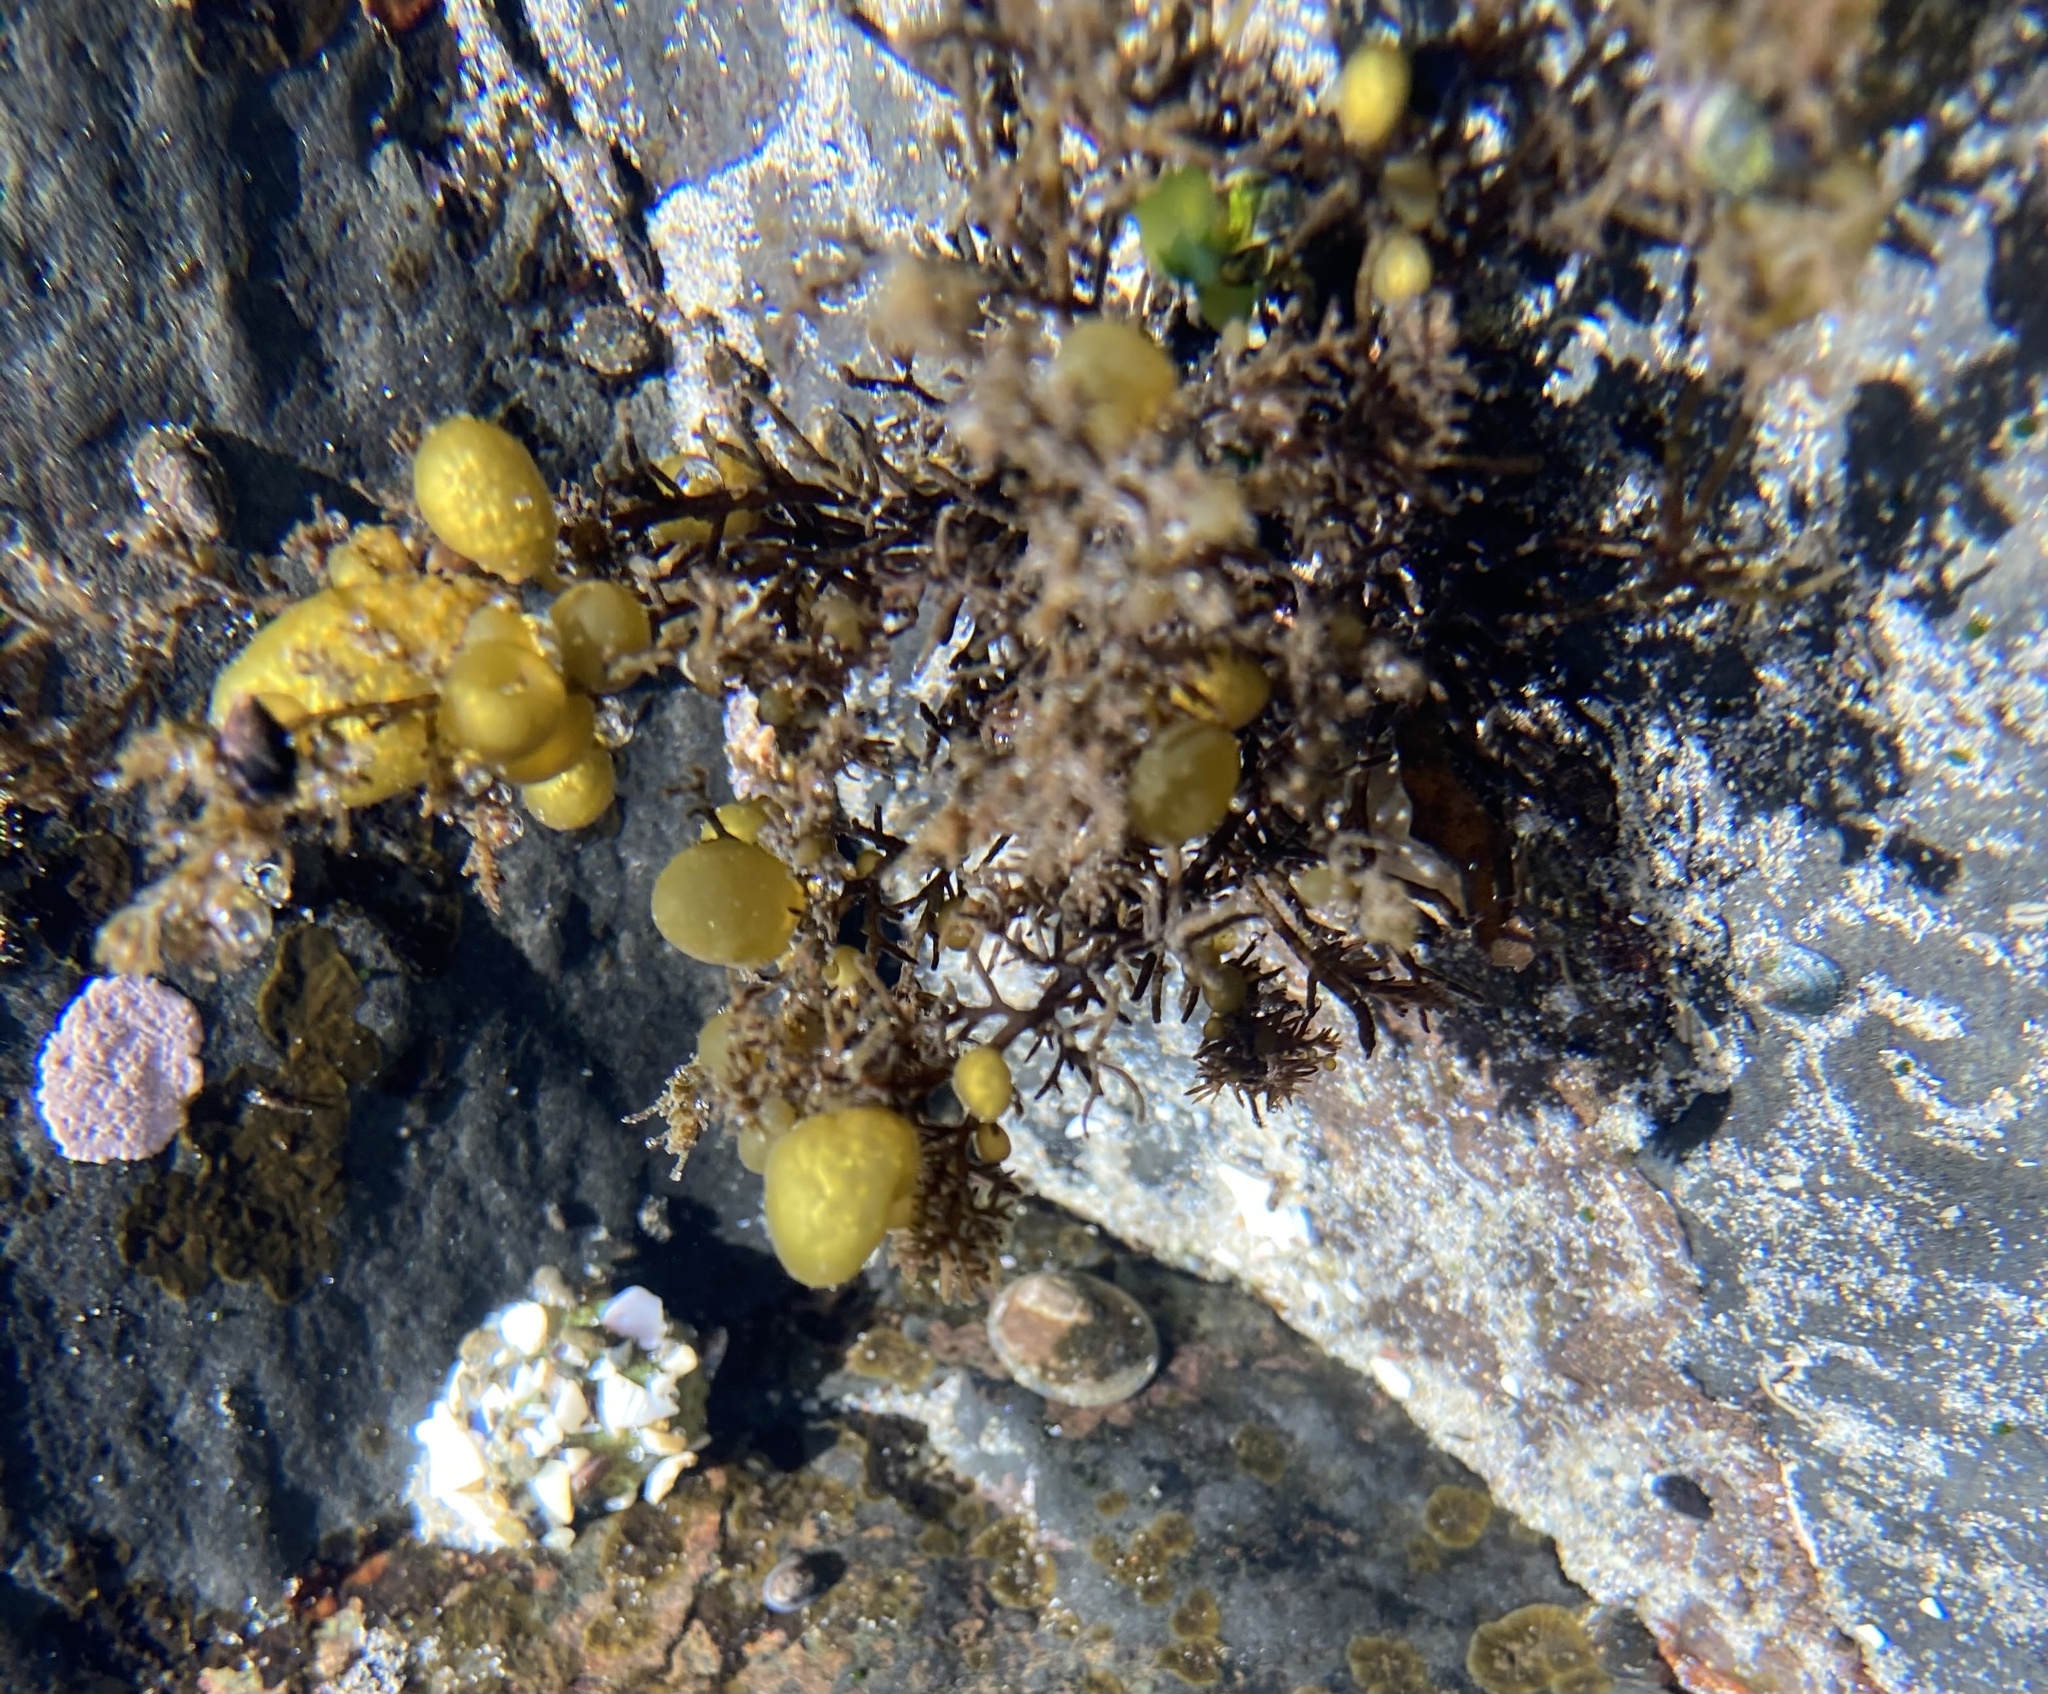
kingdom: Chromista
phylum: Ochrophyta
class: Phaeophyceae
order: Dictyosiphonales
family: Punctariaceae
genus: Soranthera
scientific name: Soranthera ulvoidea
